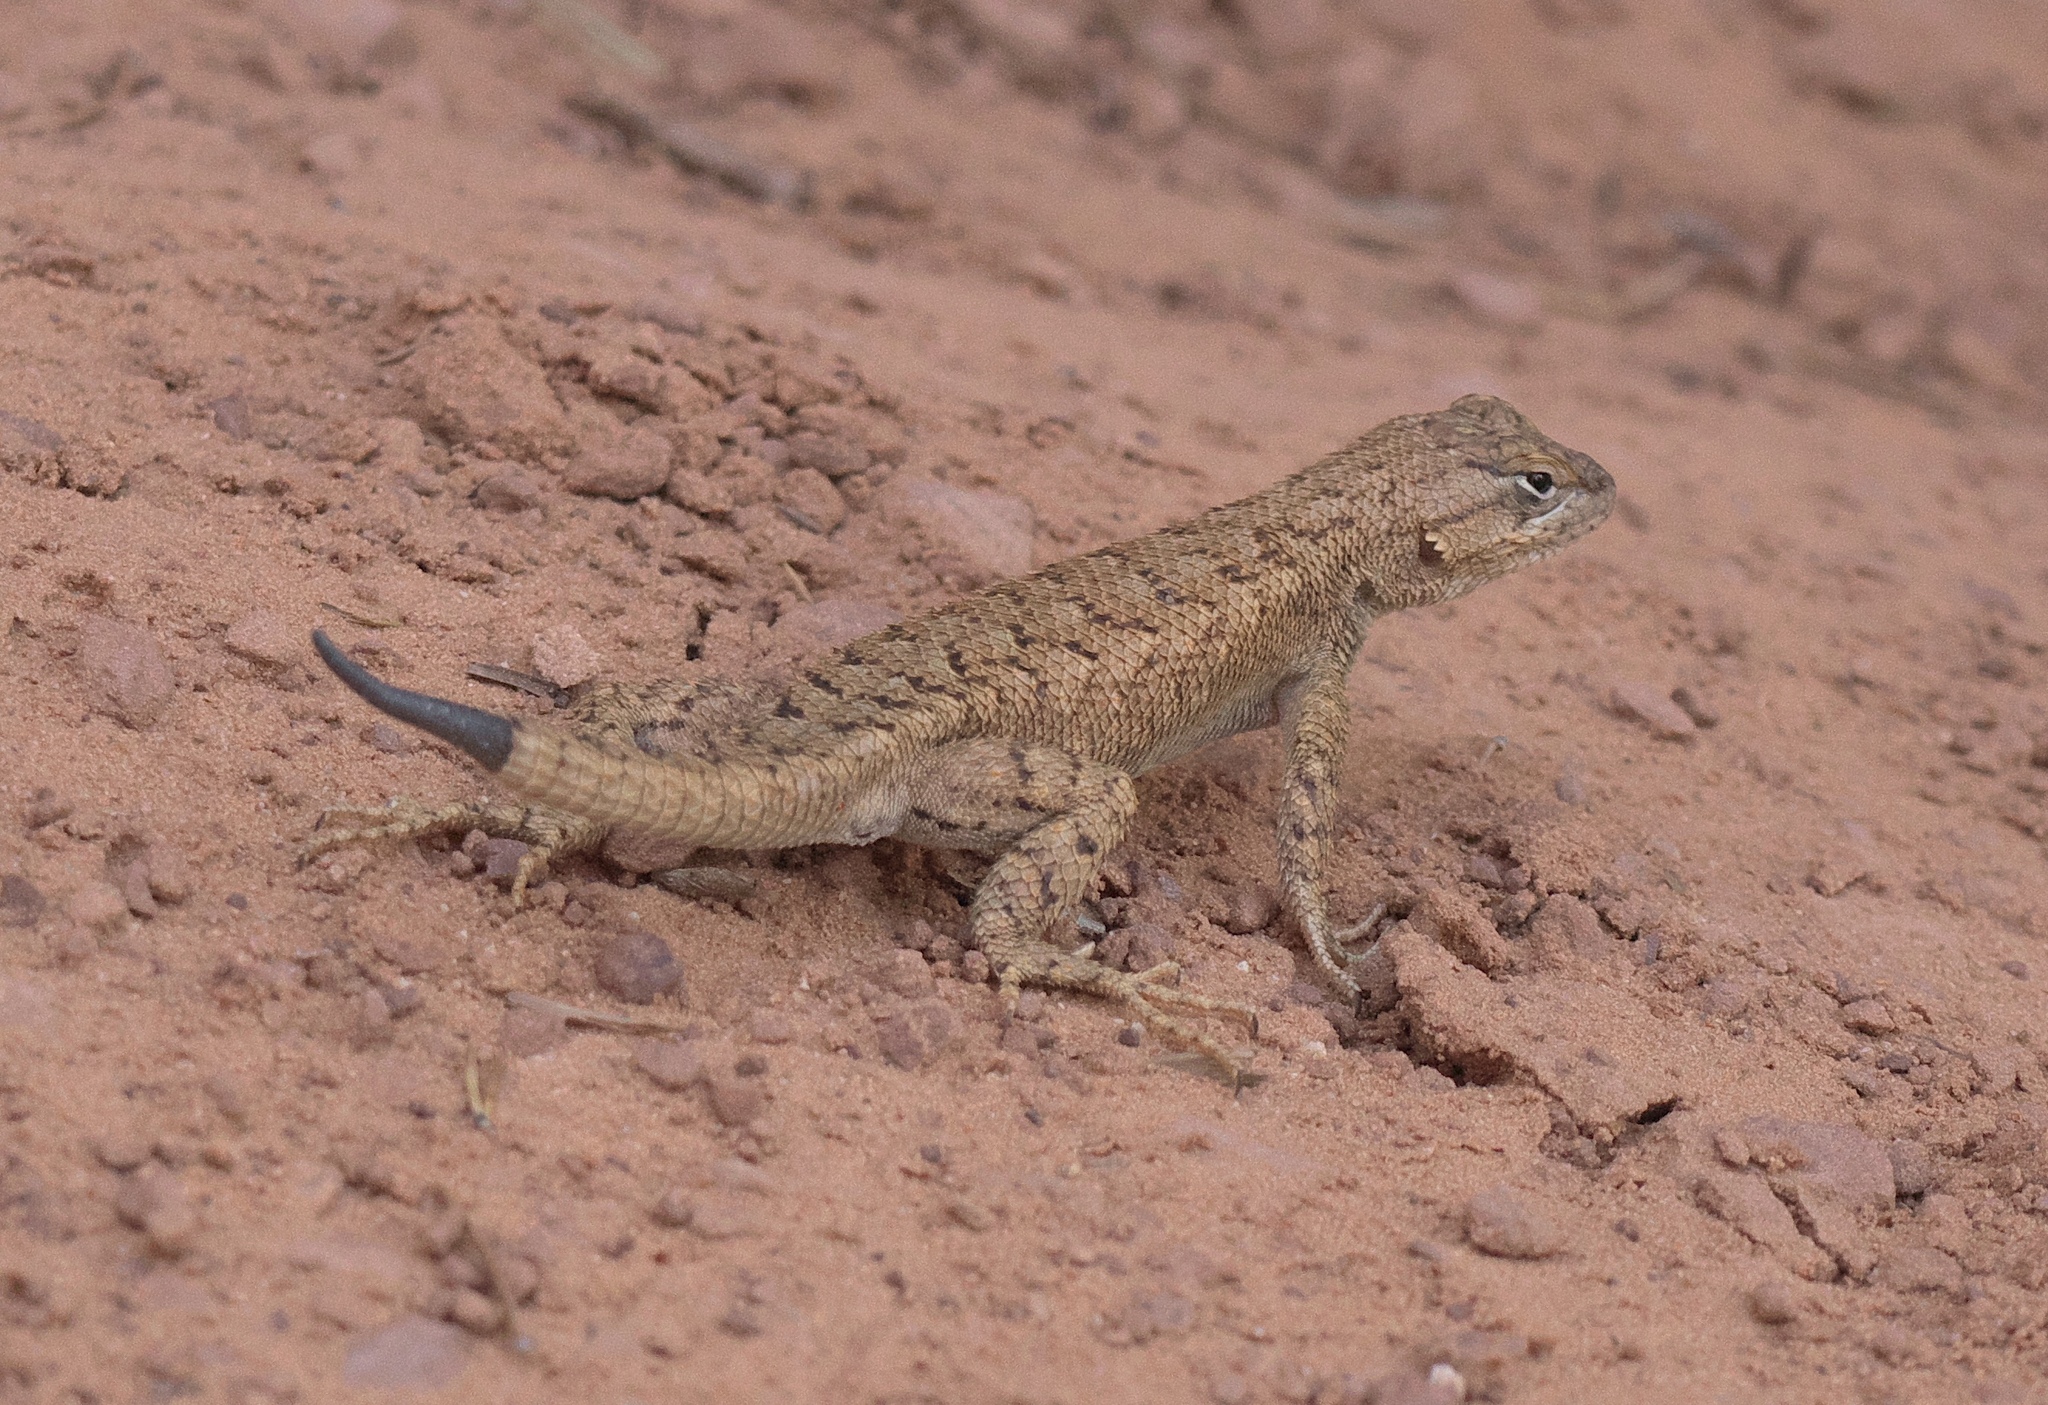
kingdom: Animalia
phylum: Chordata
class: Squamata
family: Phrynosomatidae
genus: Sceloporus
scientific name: Sceloporus tristichus
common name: Plateau fence lizard
